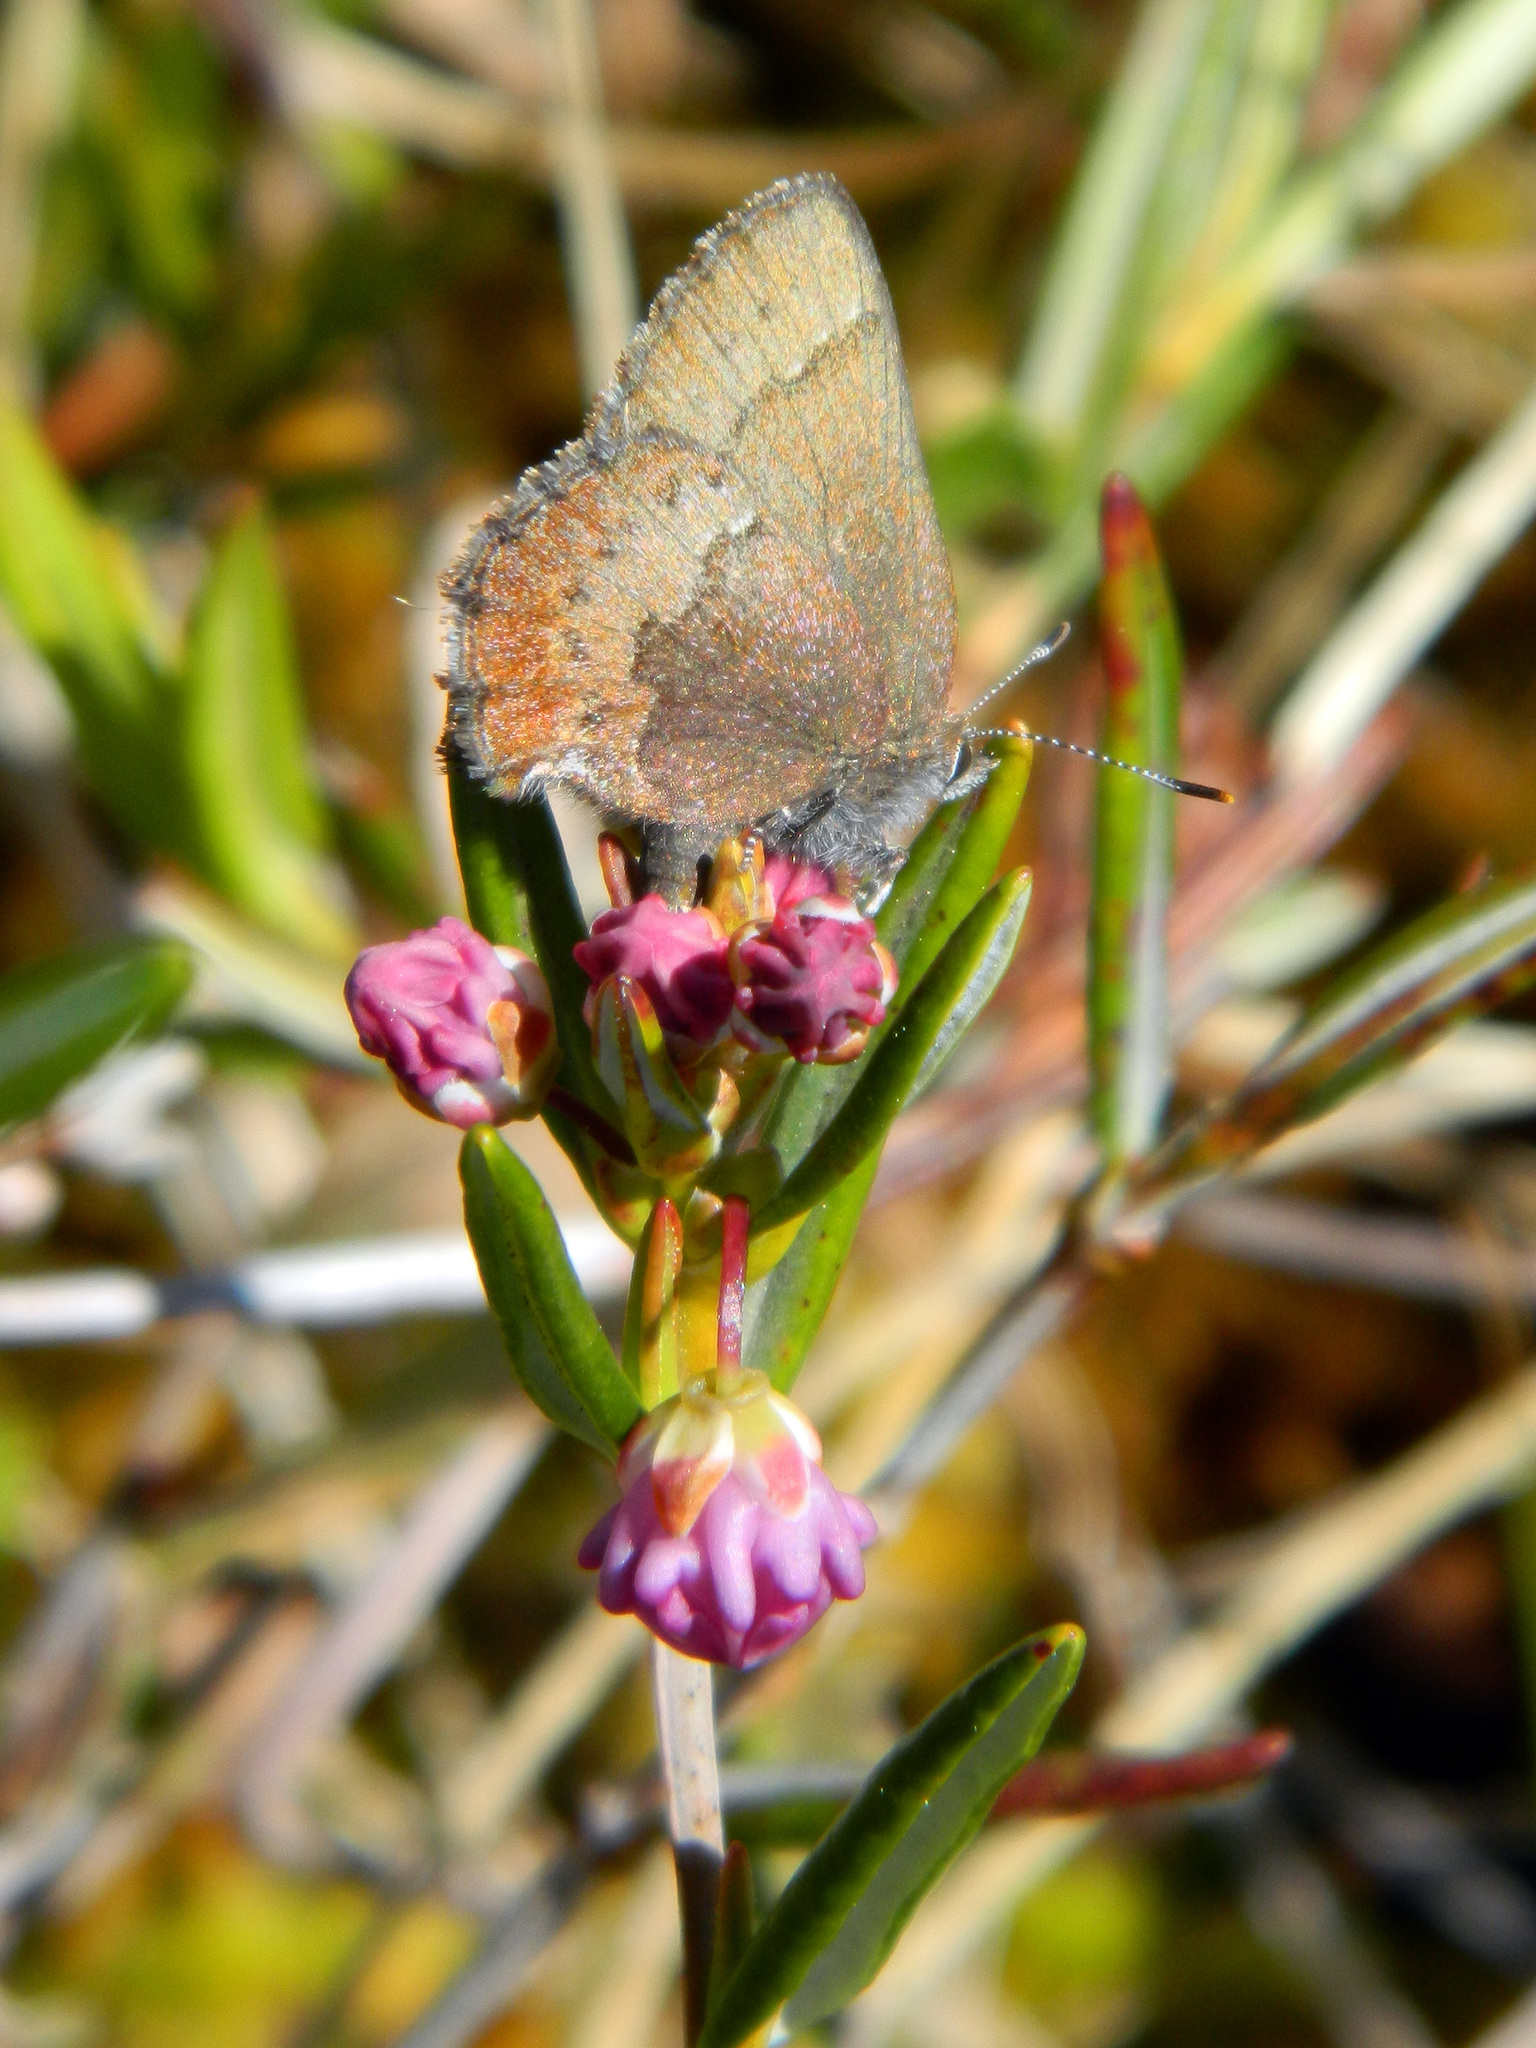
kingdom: Animalia
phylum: Arthropoda
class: Insecta
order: Lepidoptera
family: Lycaenidae
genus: Incisalia
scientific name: Incisalia irioides
